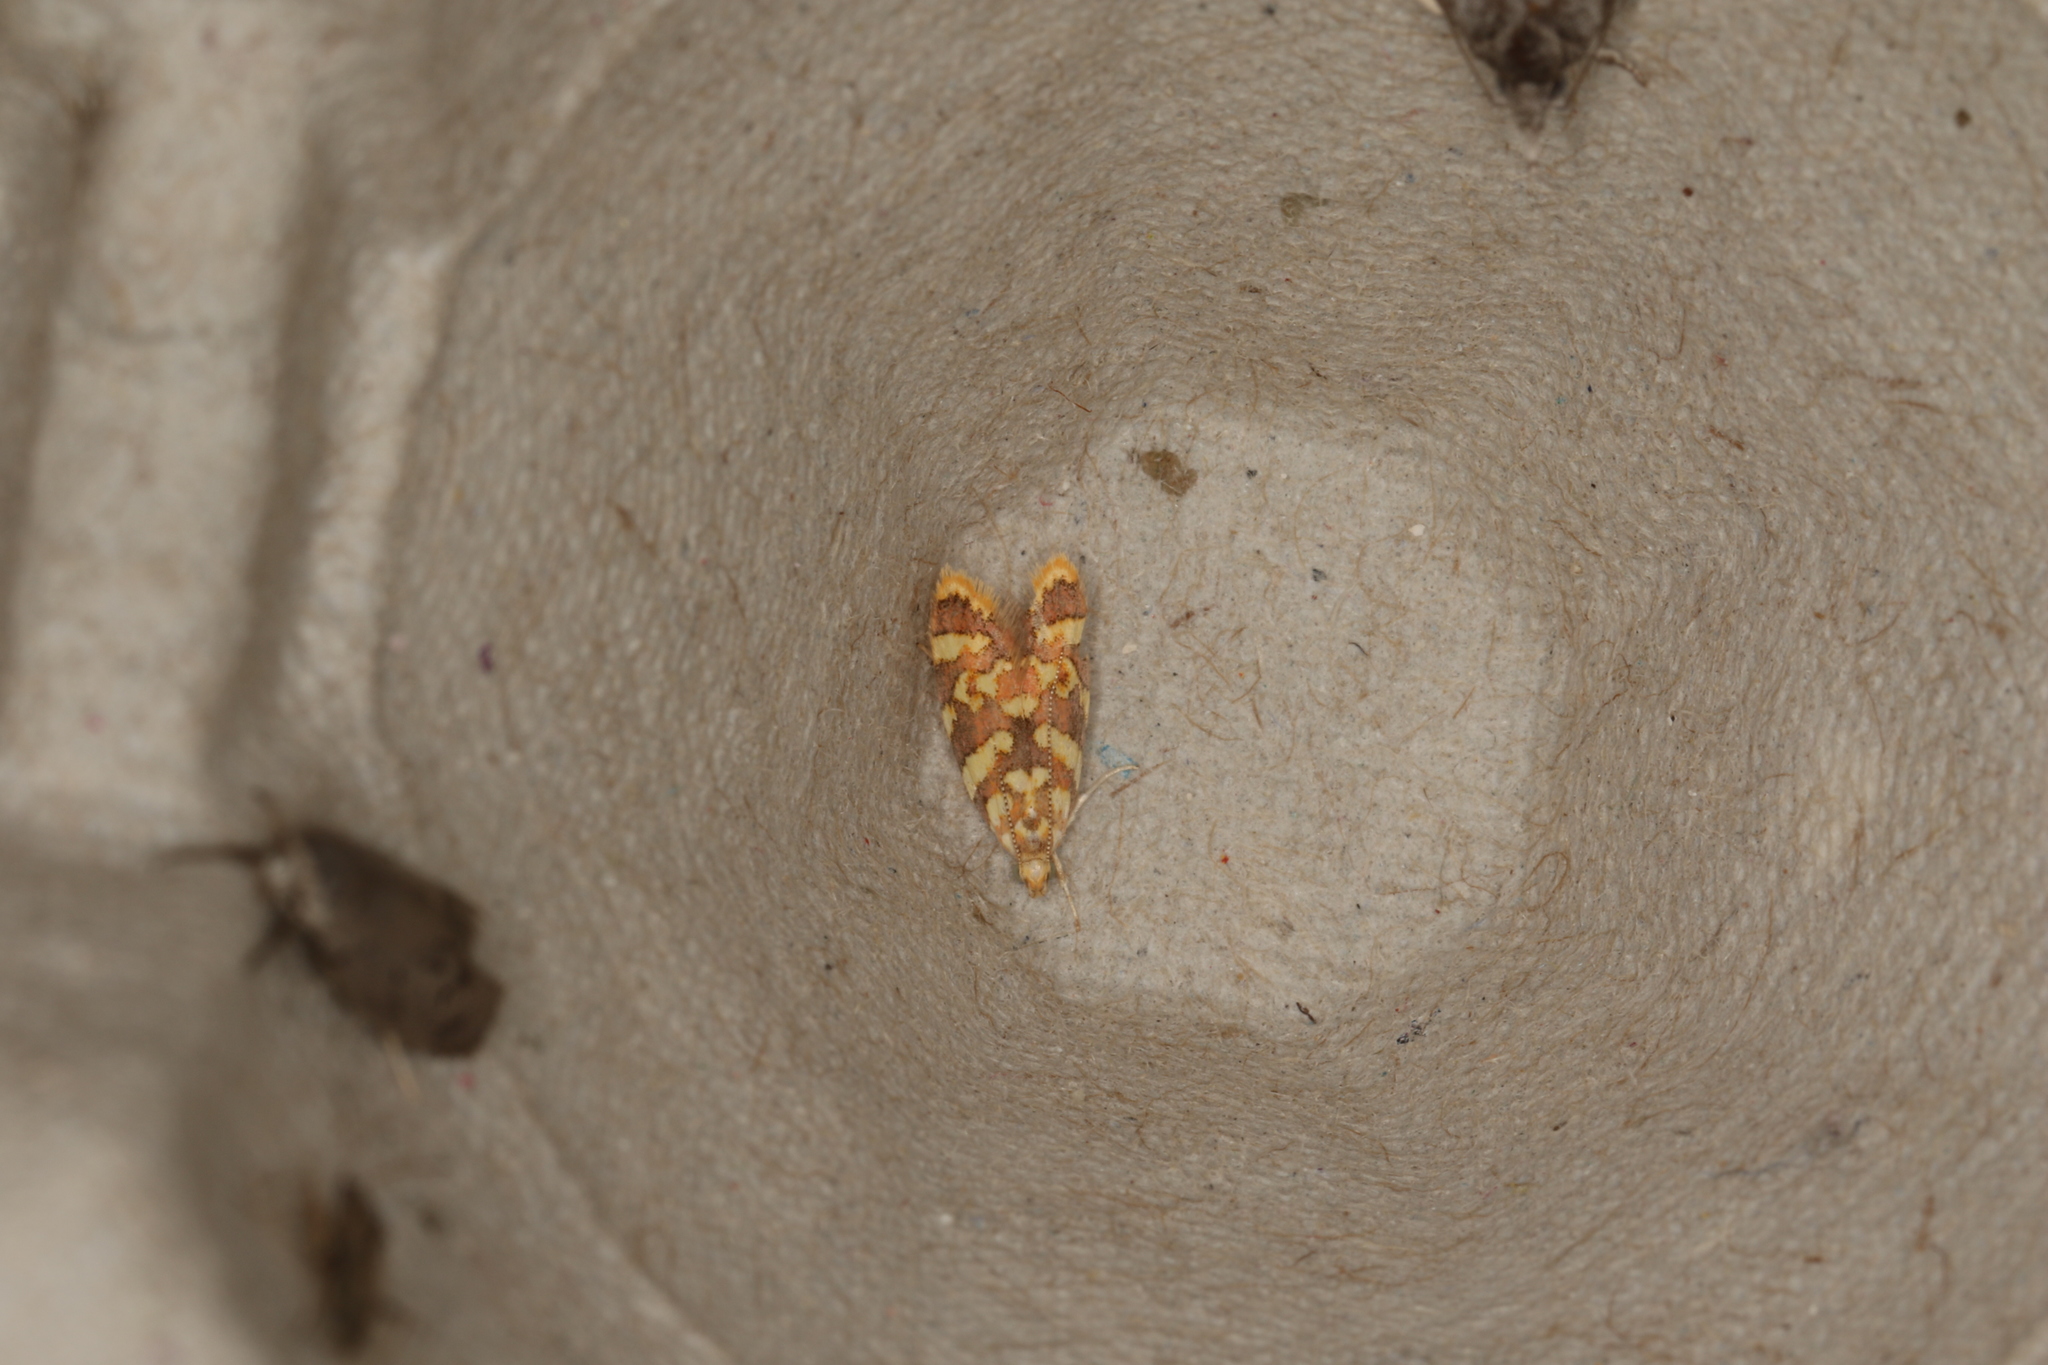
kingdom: Animalia
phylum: Arthropoda
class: Insecta
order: Lepidoptera
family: Oecophoridae
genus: Tisobarica
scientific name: Tisobarica eranna
